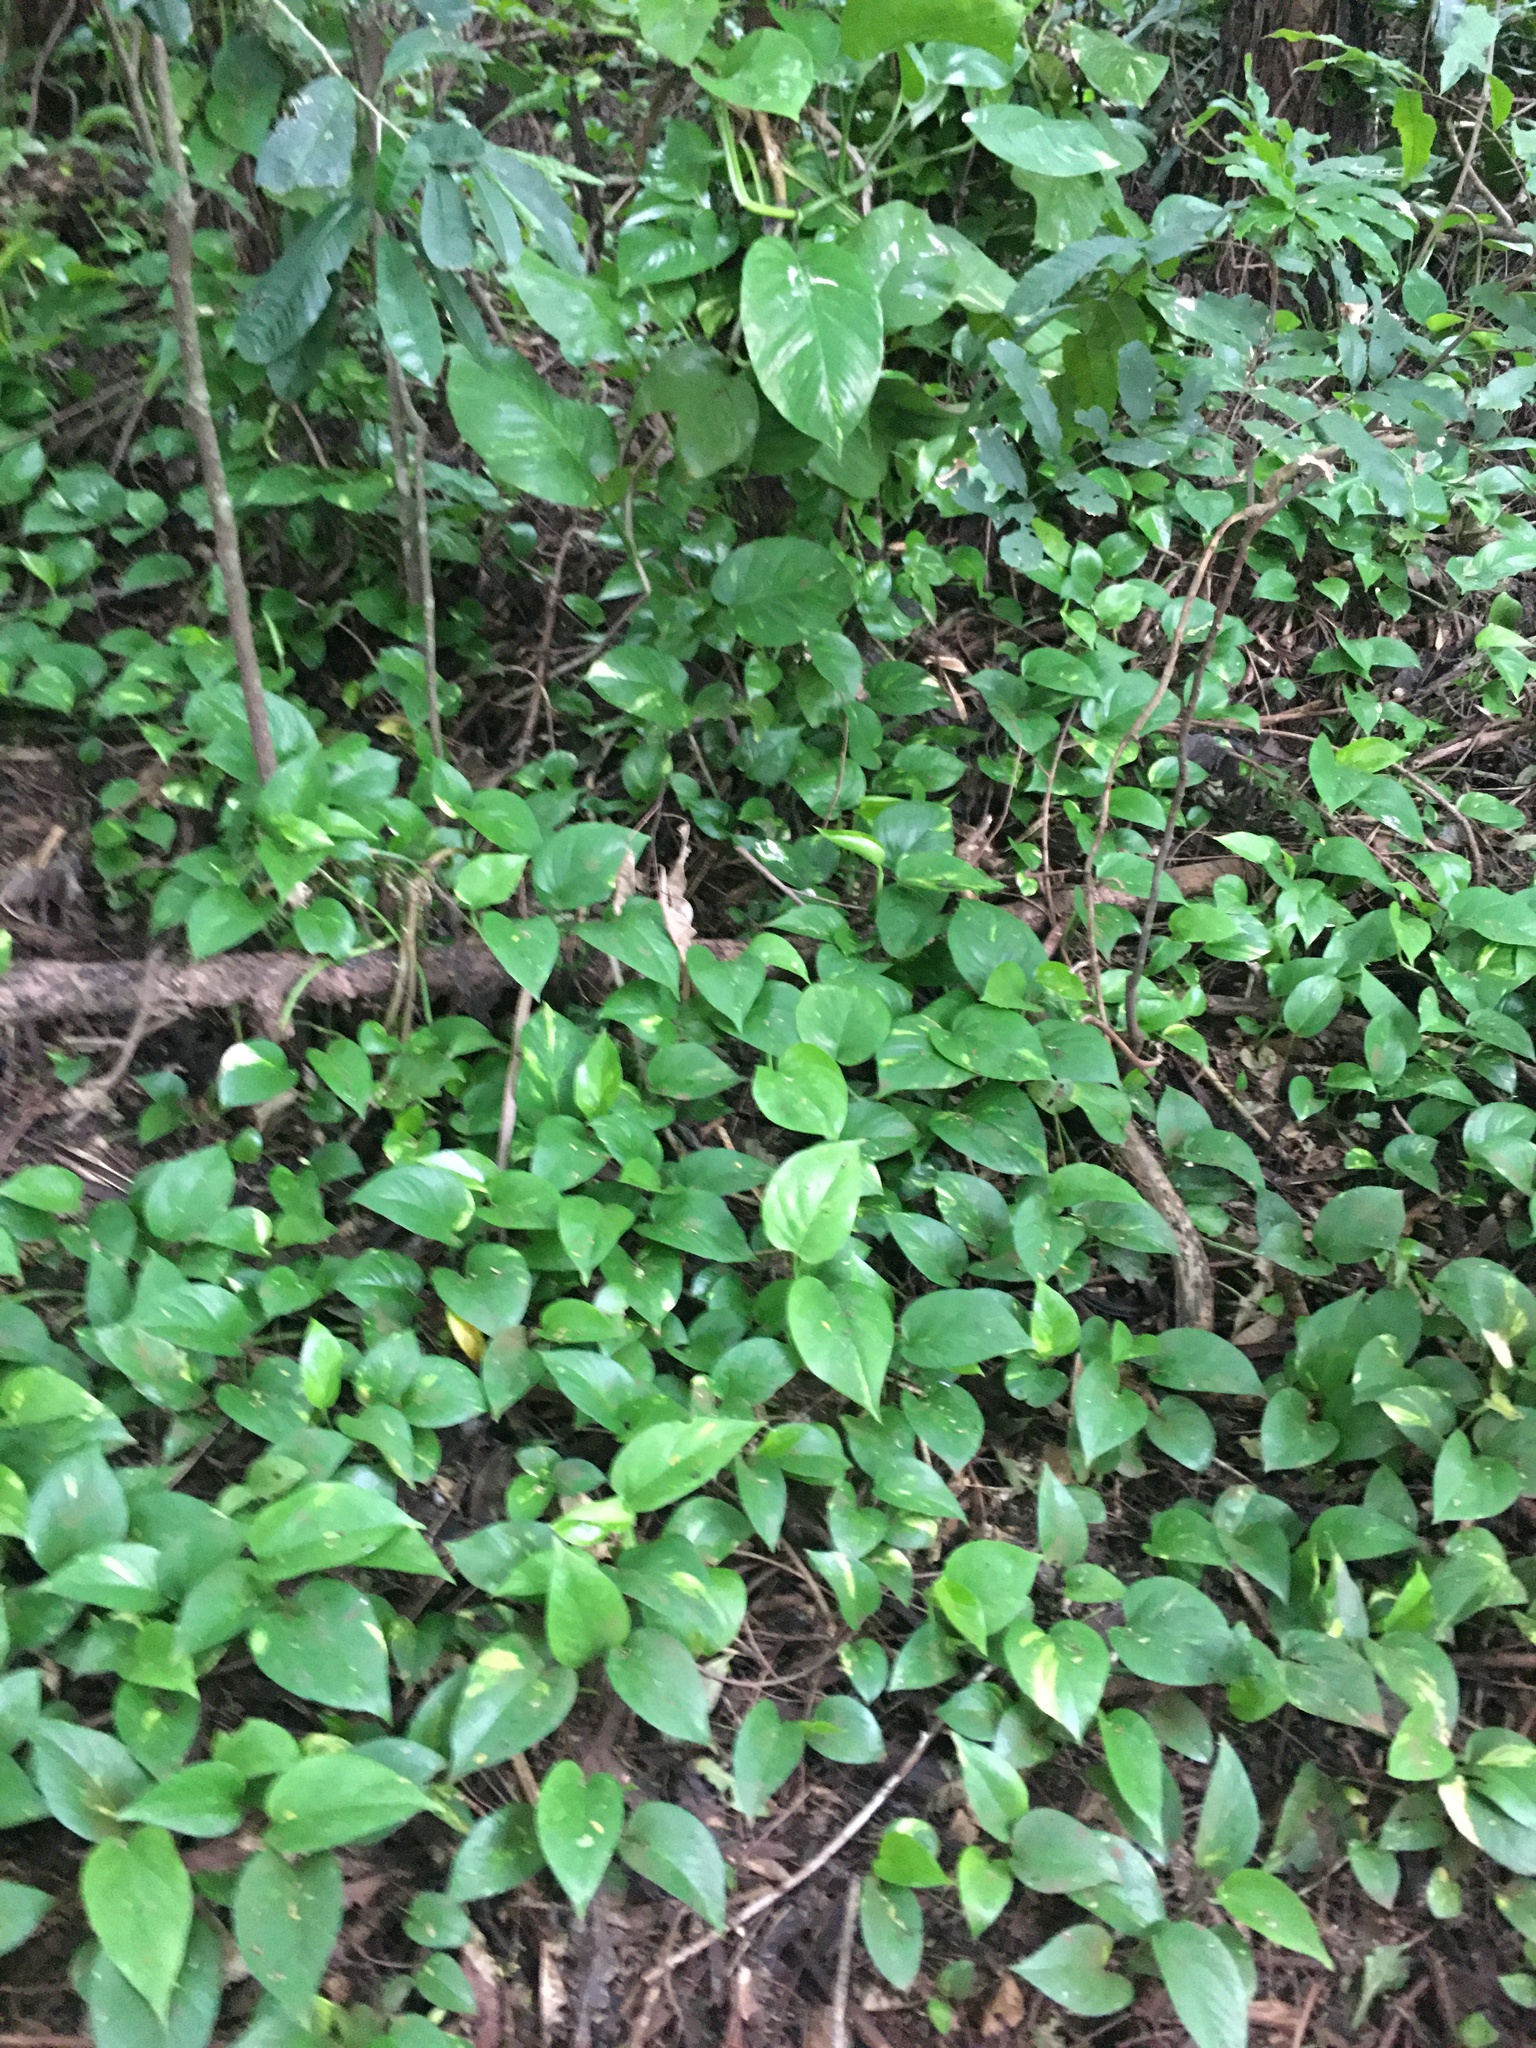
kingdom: Plantae
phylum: Tracheophyta
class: Liliopsida
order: Alismatales
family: Araceae
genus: Epipremnum
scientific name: Epipremnum aureum
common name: Golden hunter's-robe
